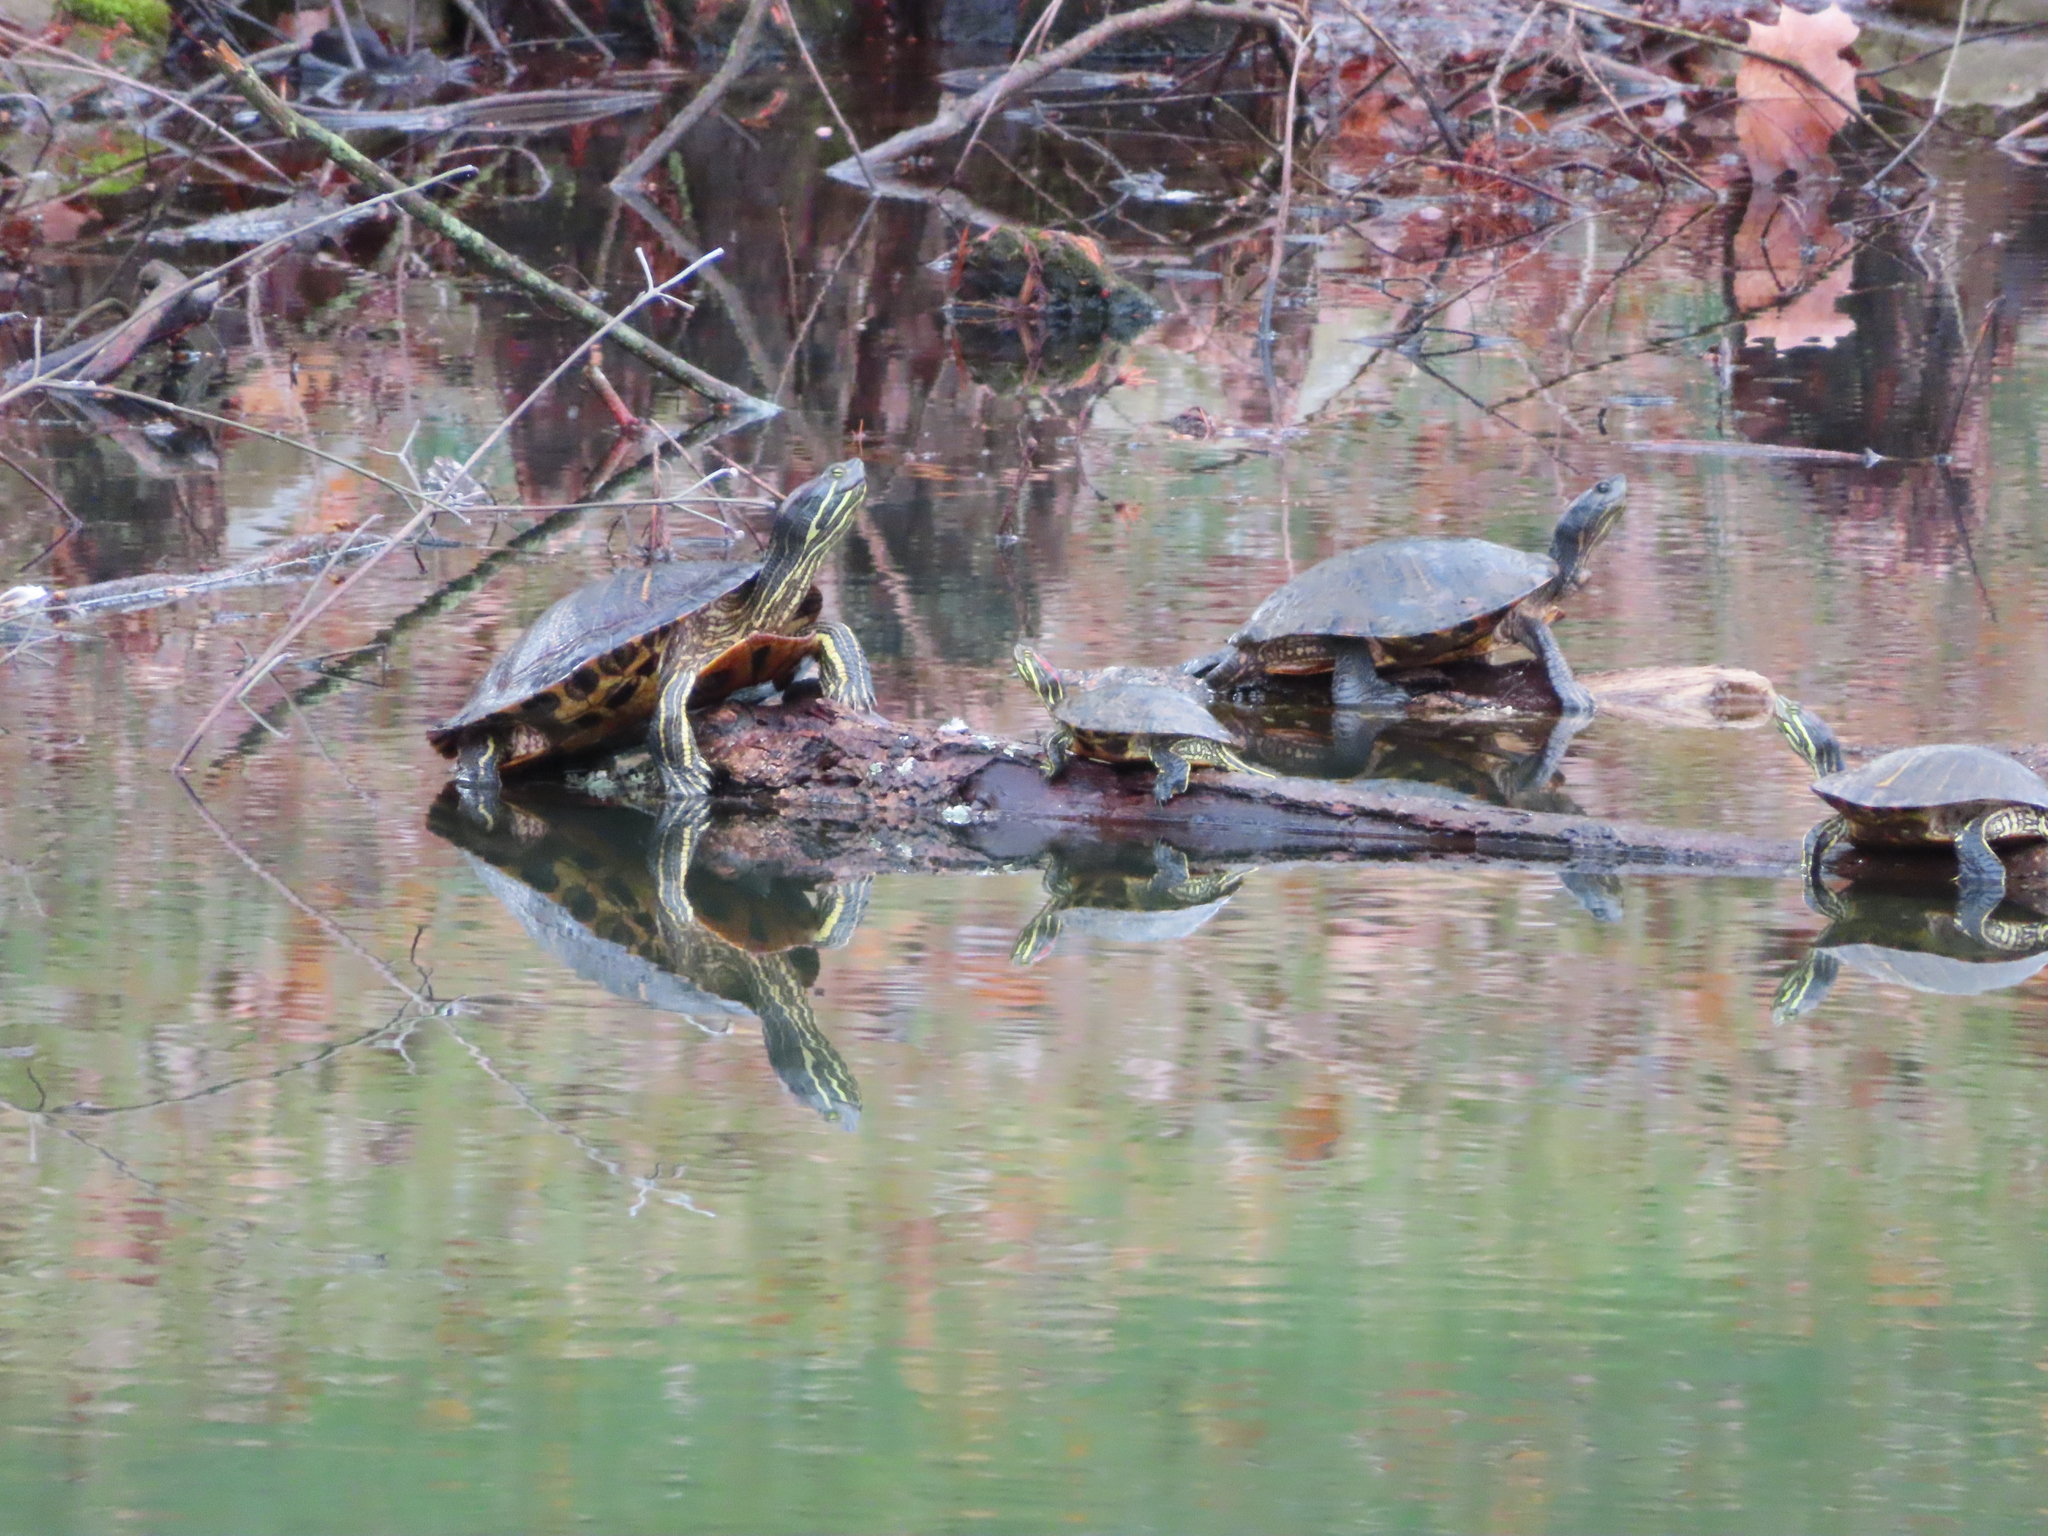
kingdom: Animalia
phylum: Chordata
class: Testudines
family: Emydidae
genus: Trachemys
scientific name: Trachemys scripta
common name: Slider
